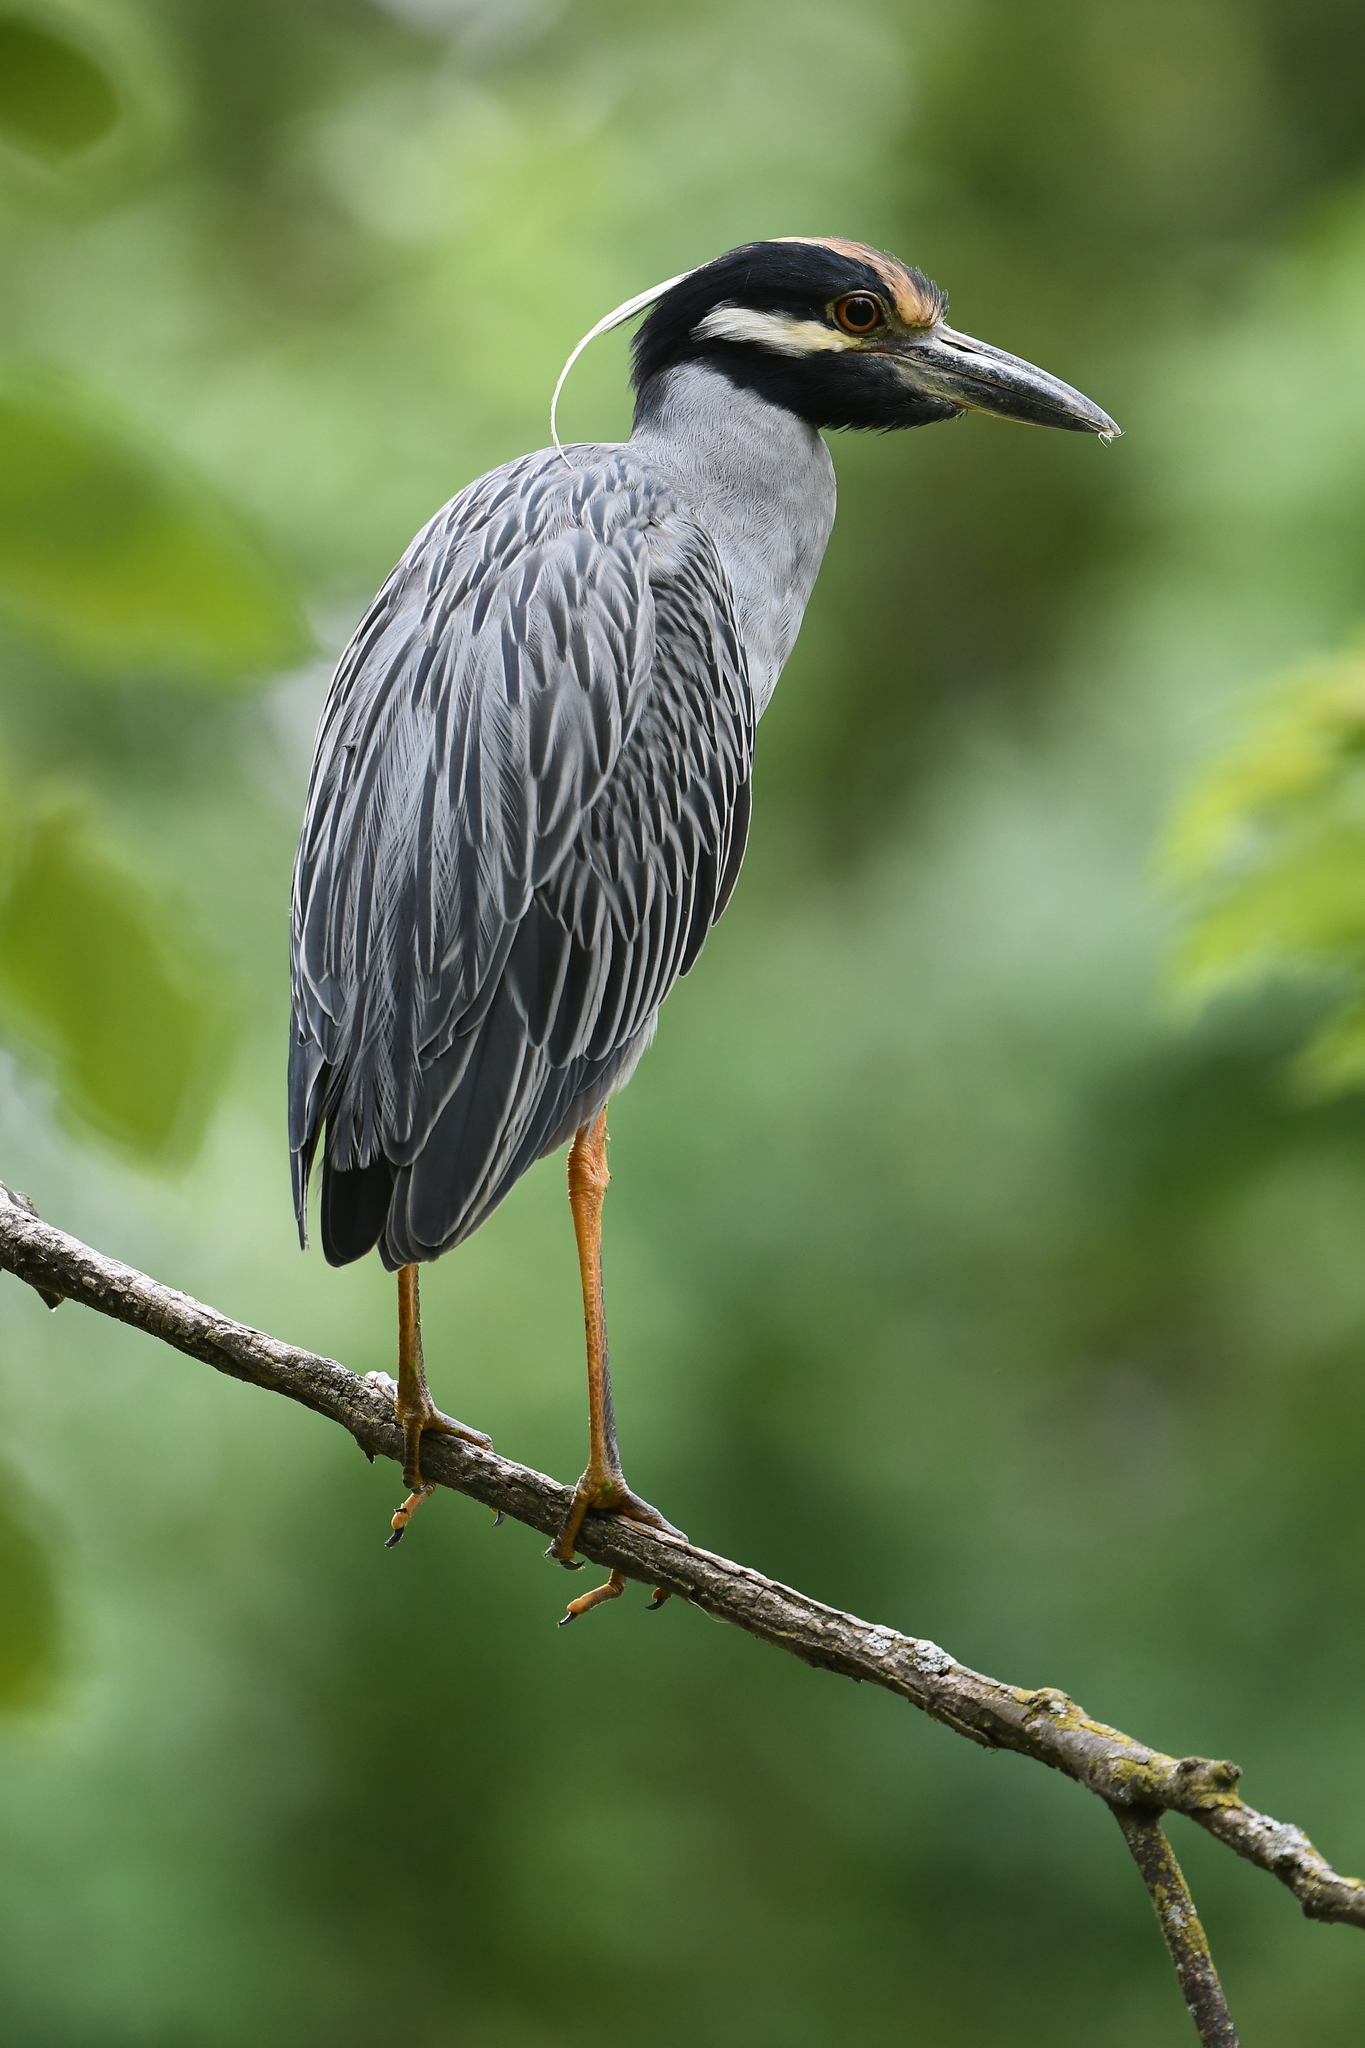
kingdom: Animalia
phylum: Chordata
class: Aves
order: Pelecaniformes
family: Ardeidae
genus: Nyctanassa
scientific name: Nyctanassa violacea
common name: Yellow-crowned night heron
